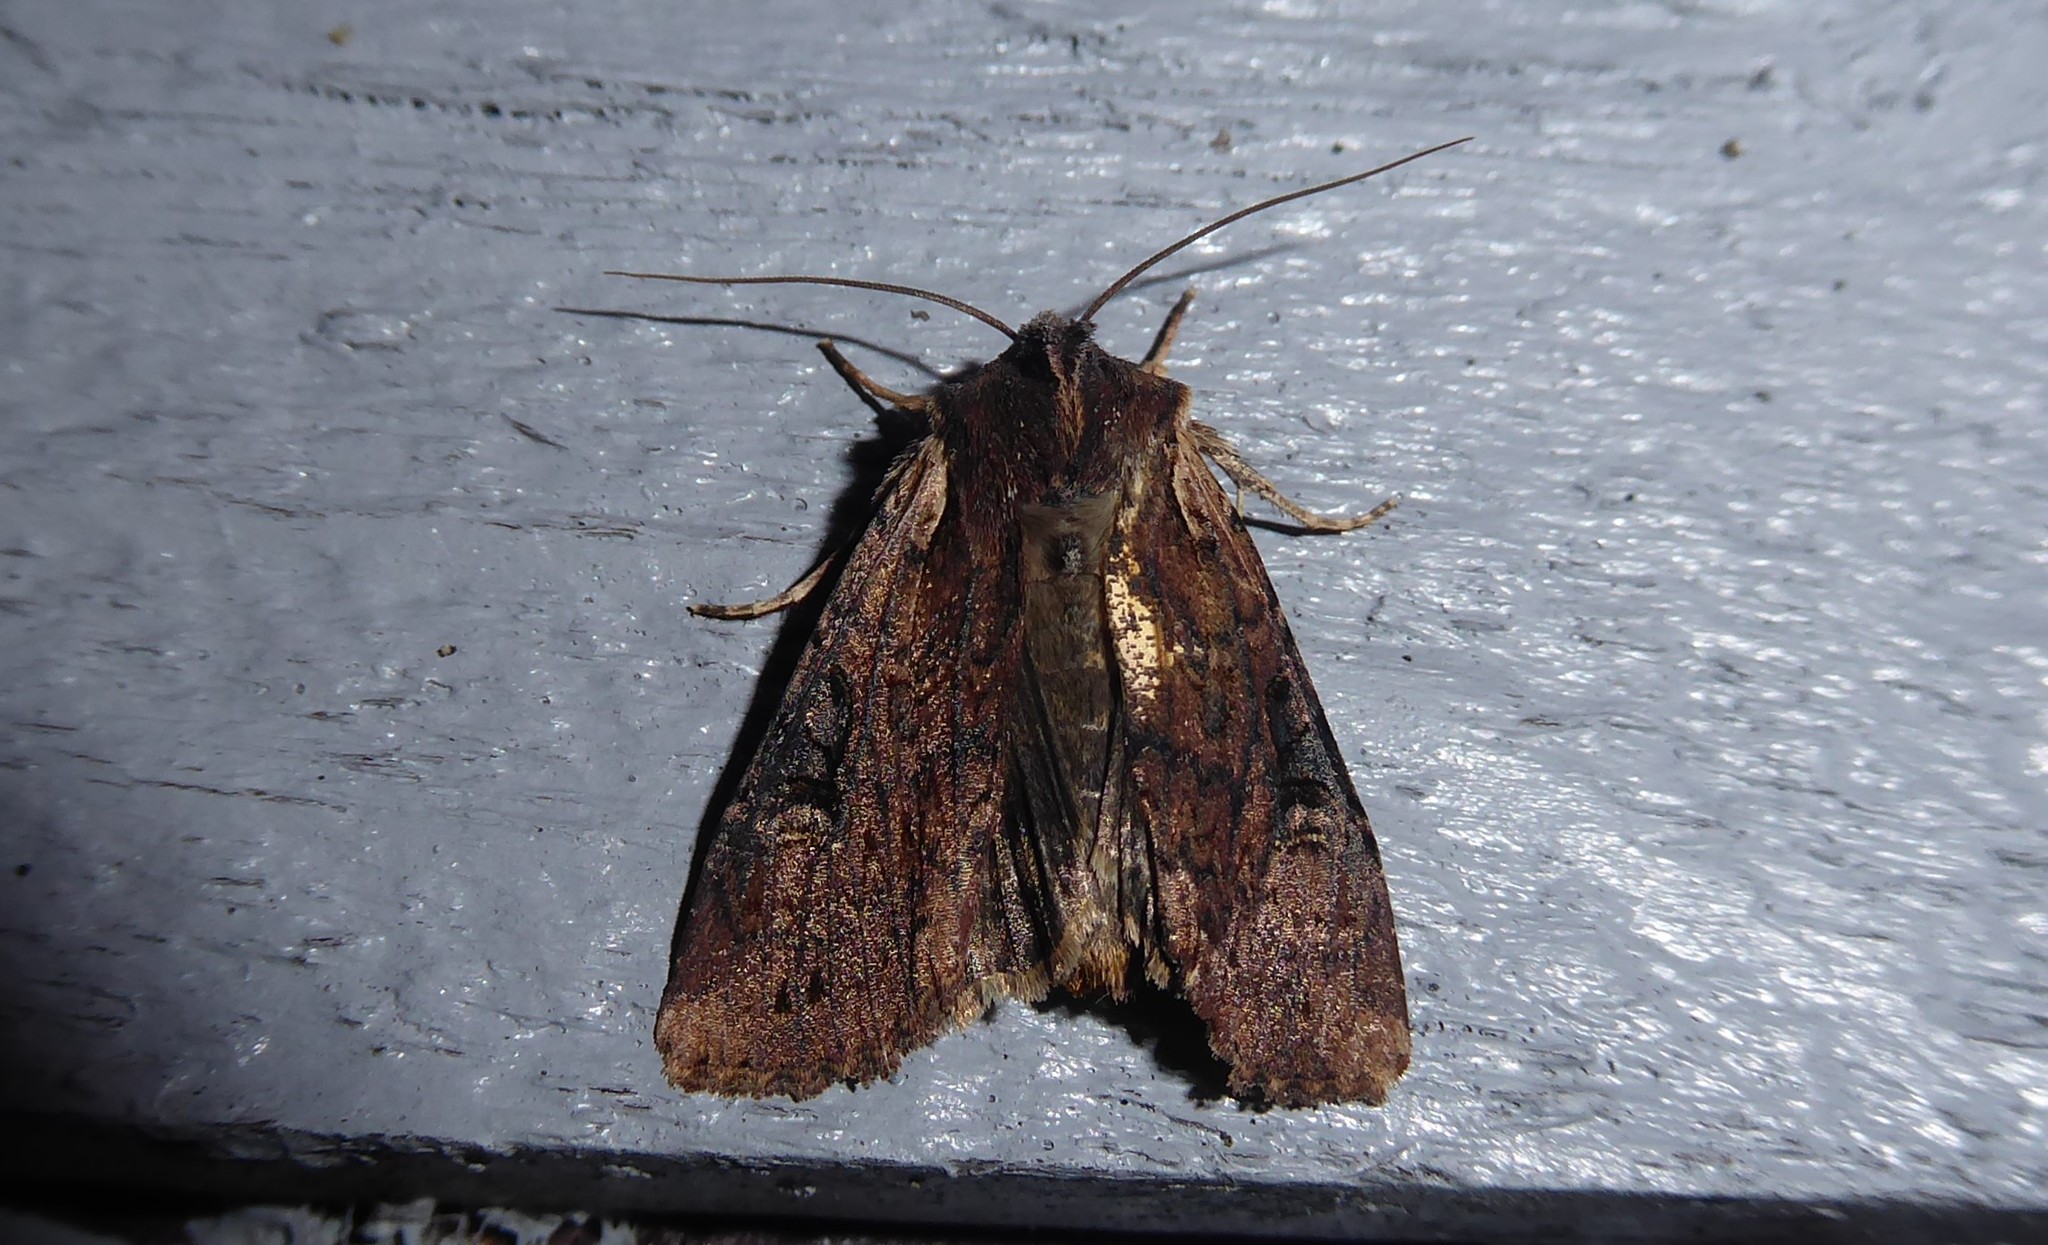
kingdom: Animalia
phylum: Arthropoda
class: Insecta
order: Lepidoptera
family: Noctuidae
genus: Ichneutica
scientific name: Ichneutica omoplaca
